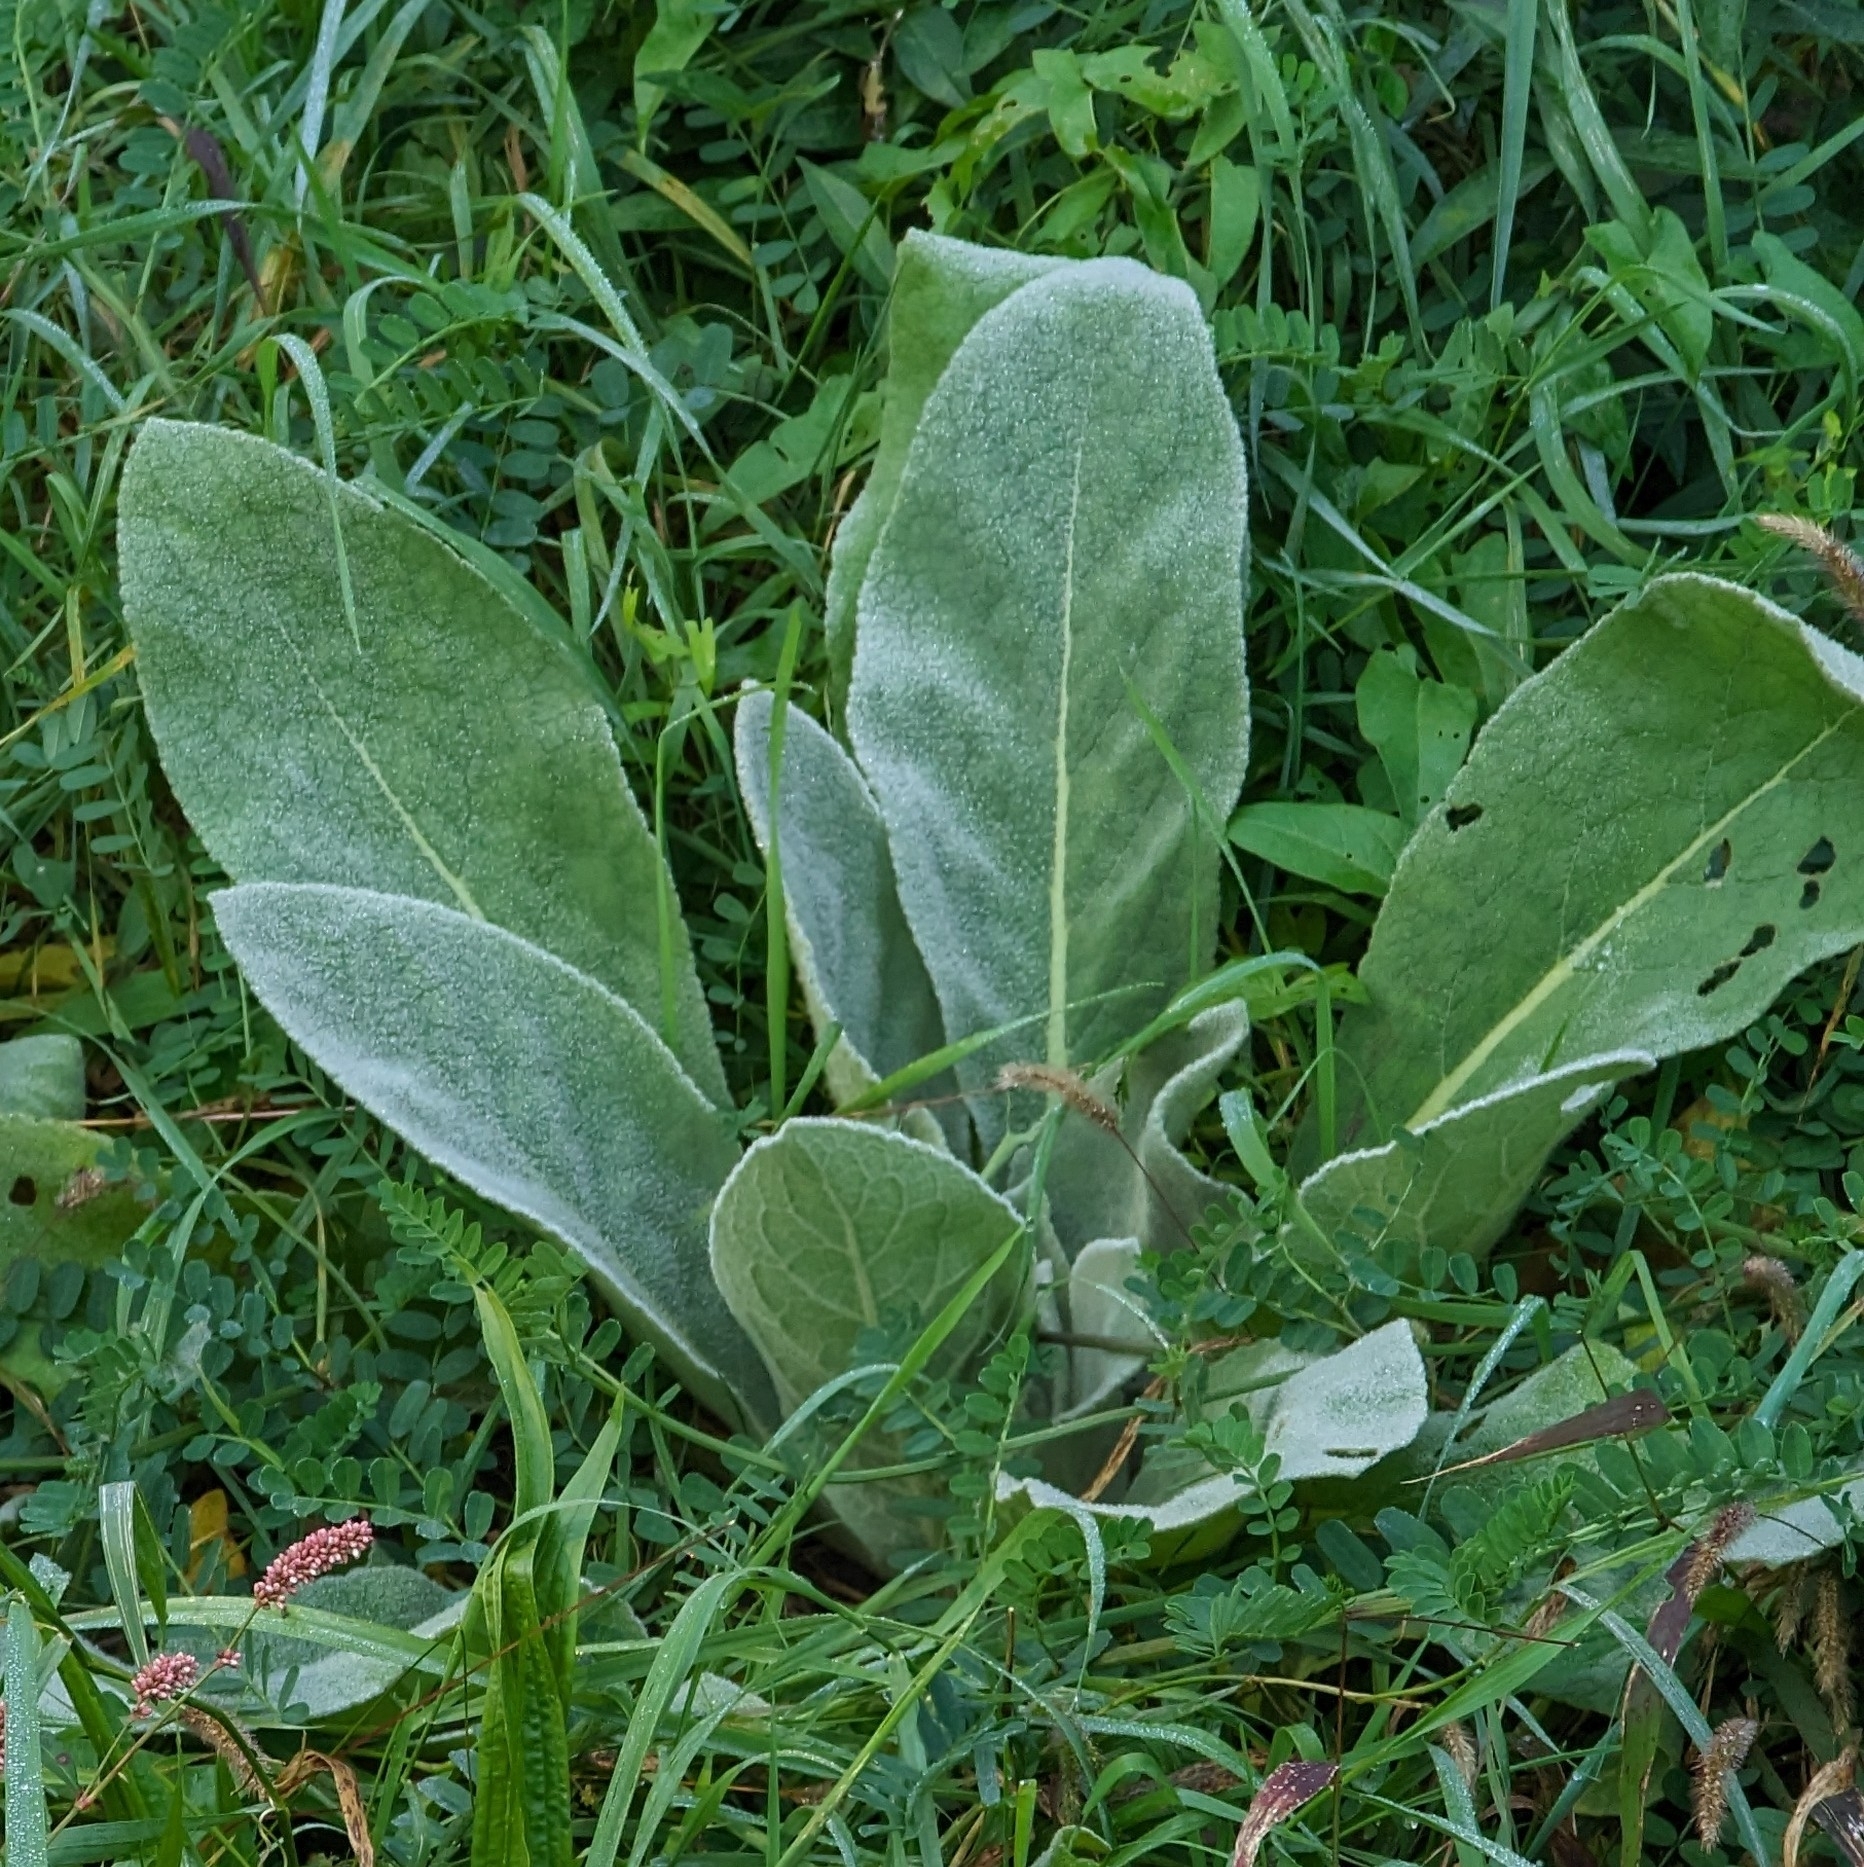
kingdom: Plantae
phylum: Tracheophyta
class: Magnoliopsida
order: Lamiales
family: Scrophulariaceae
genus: Verbascum
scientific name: Verbascum thapsus
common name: Common mullein
